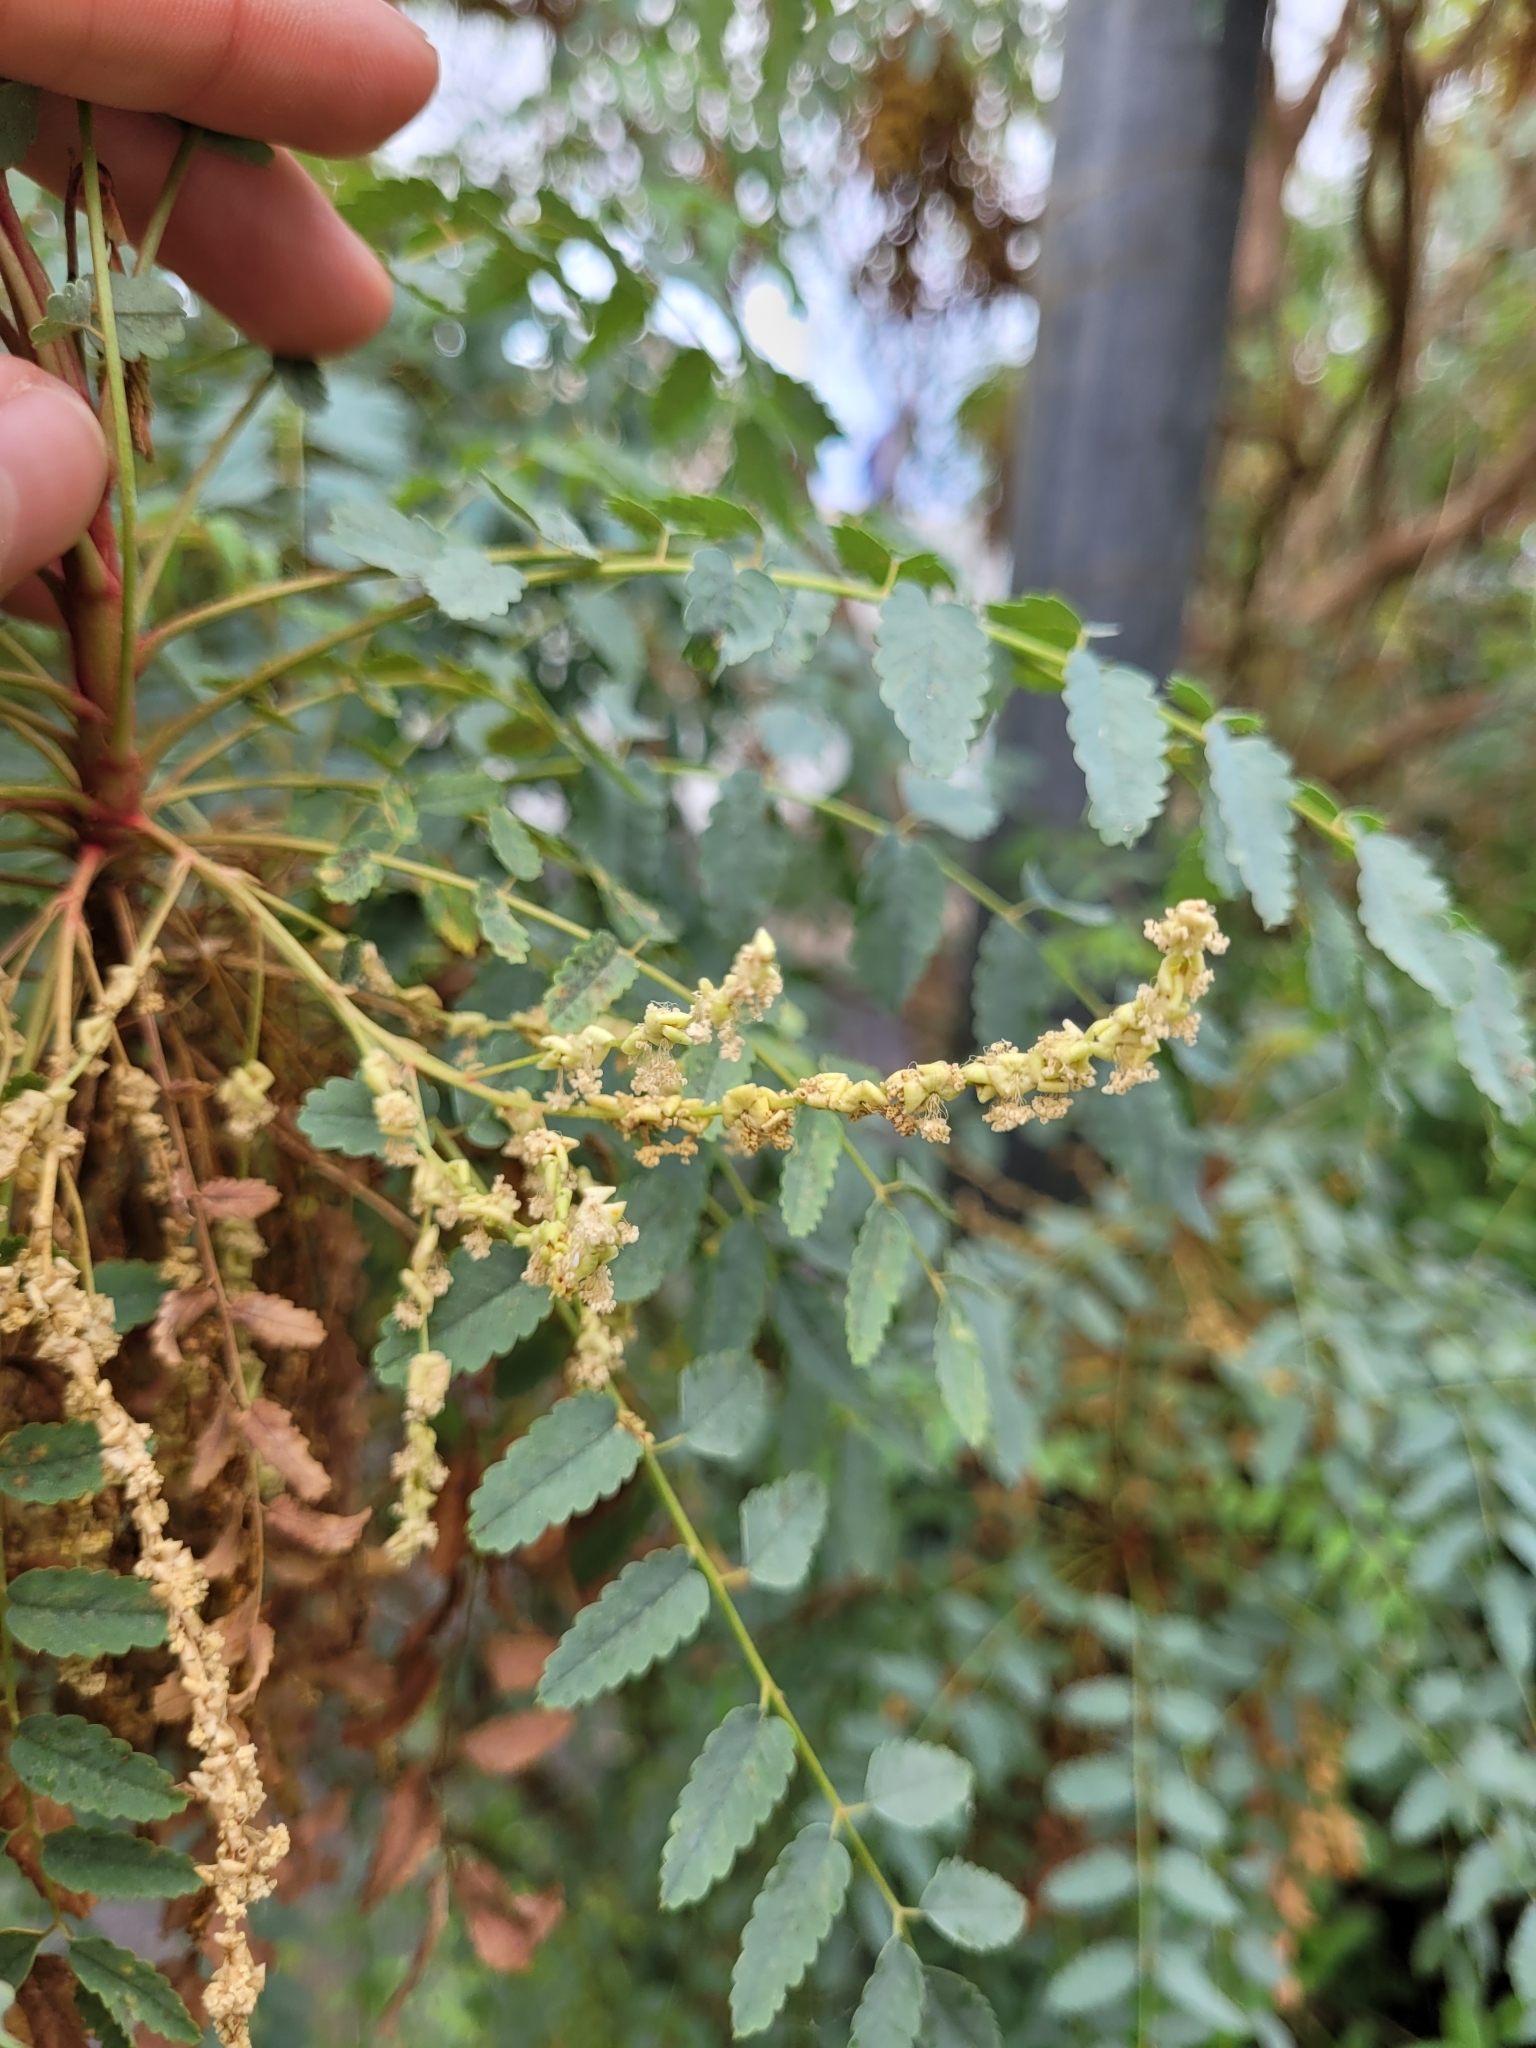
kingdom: Plantae
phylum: Tracheophyta
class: Magnoliopsida
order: Rosales
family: Rosaceae
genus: Marcetella
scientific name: Marcetella moquiniana
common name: Burnet tree
